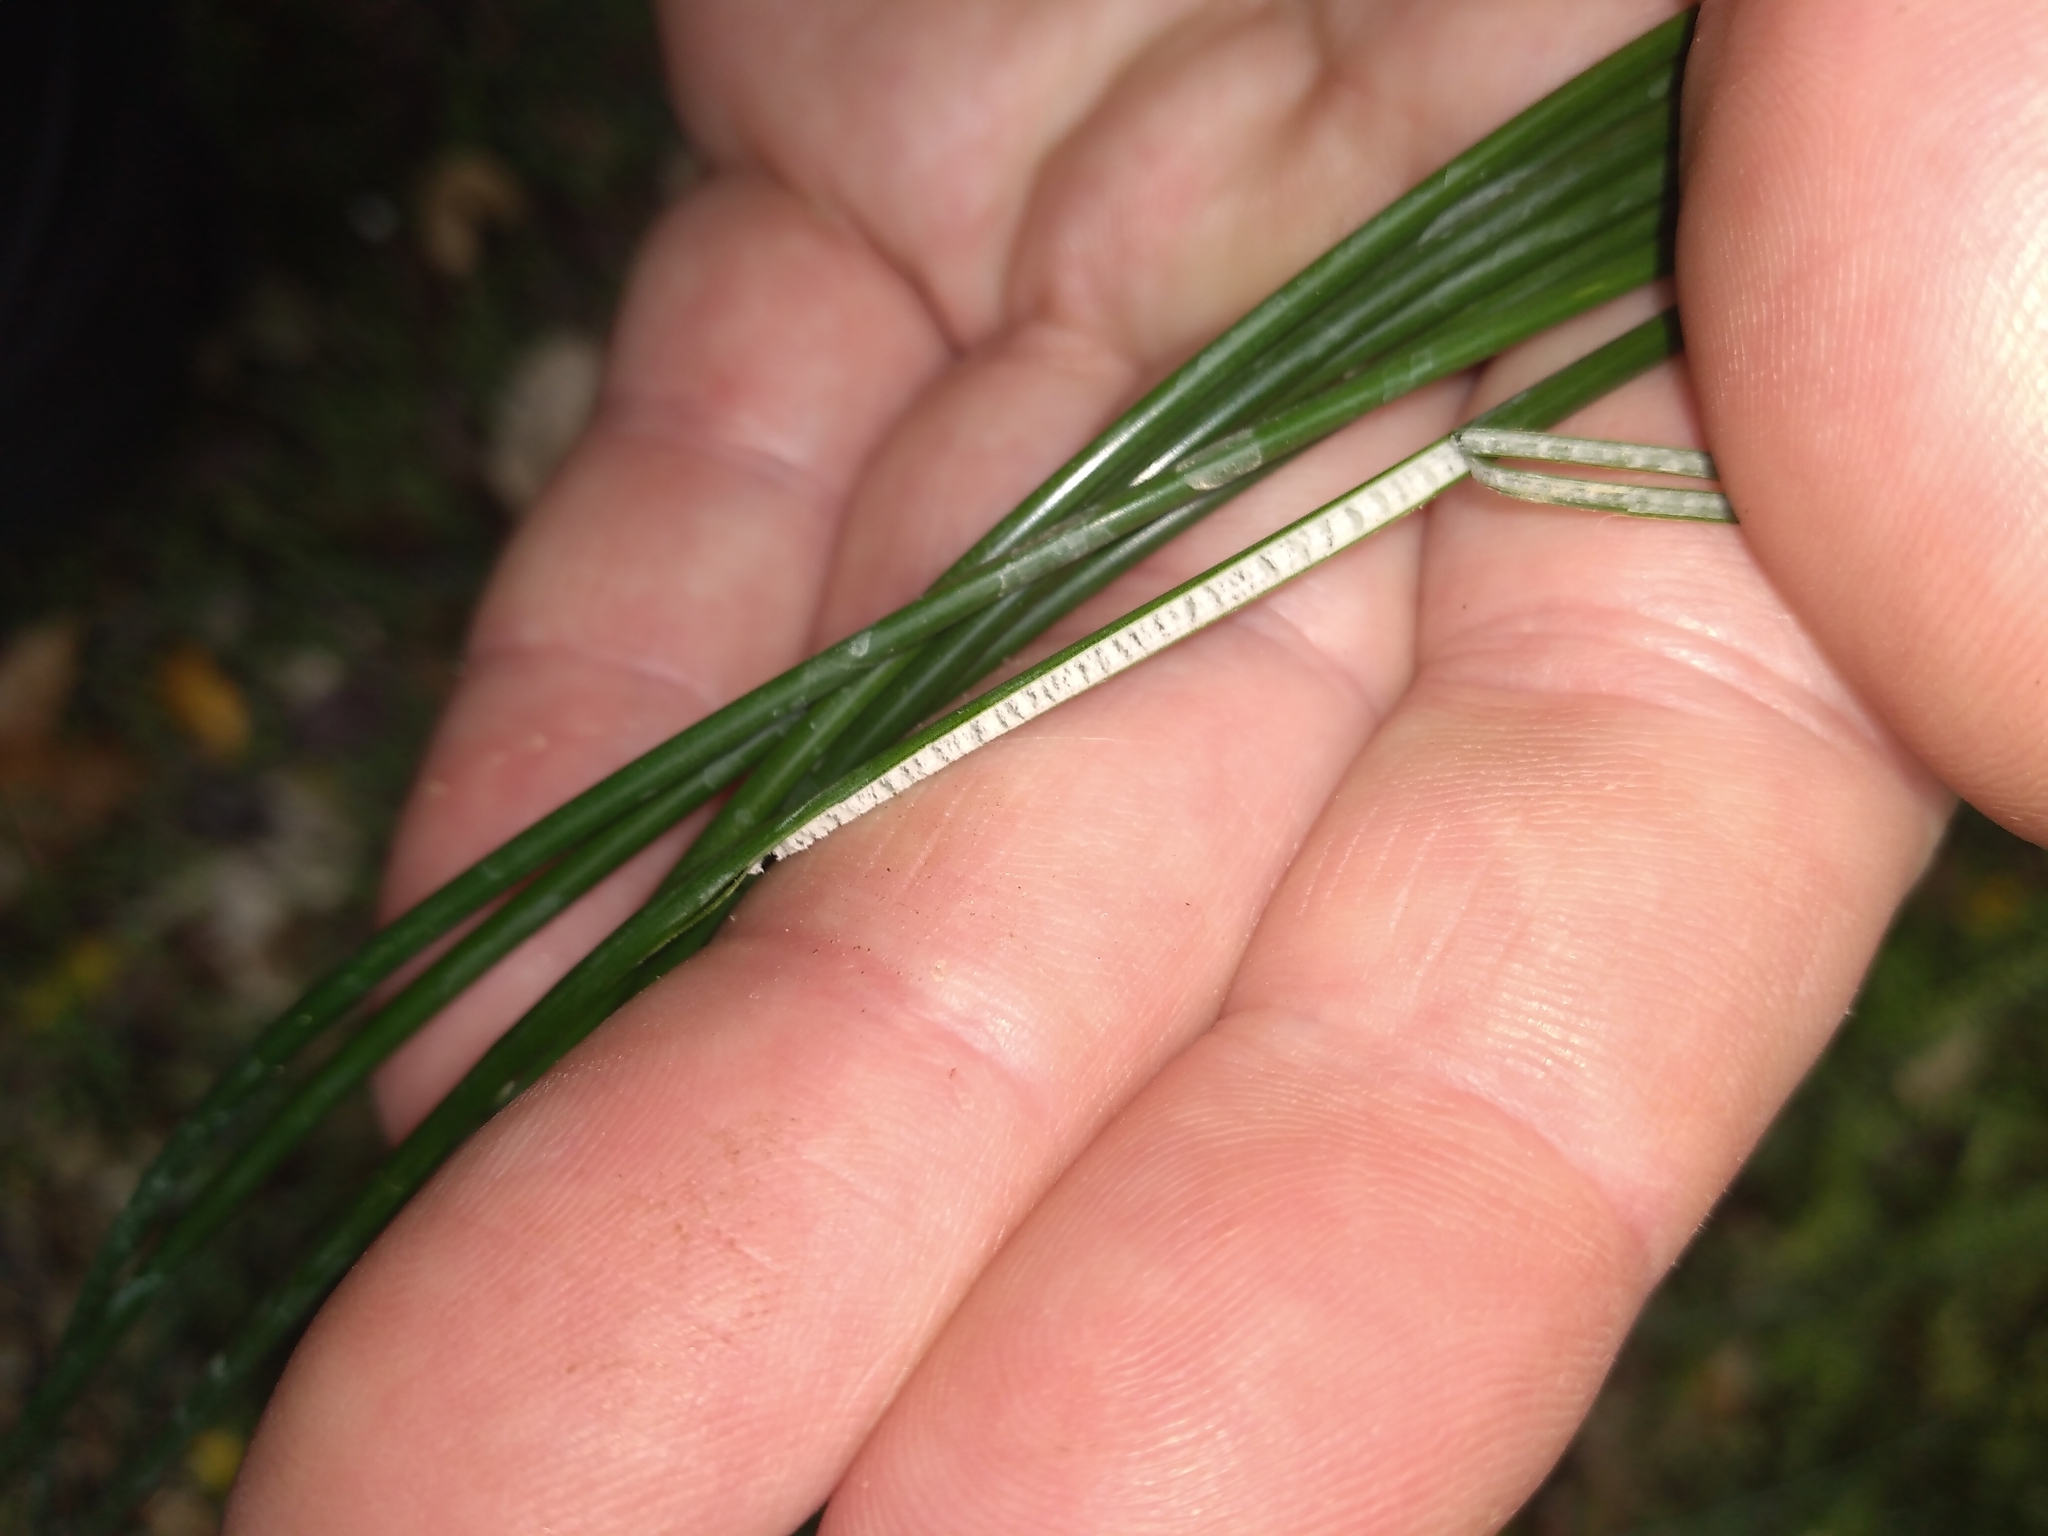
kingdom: Plantae
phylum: Tracheophyta
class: Liliopsida
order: Poales
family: Juncaceae
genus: Juncus
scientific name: Juncus distegus
